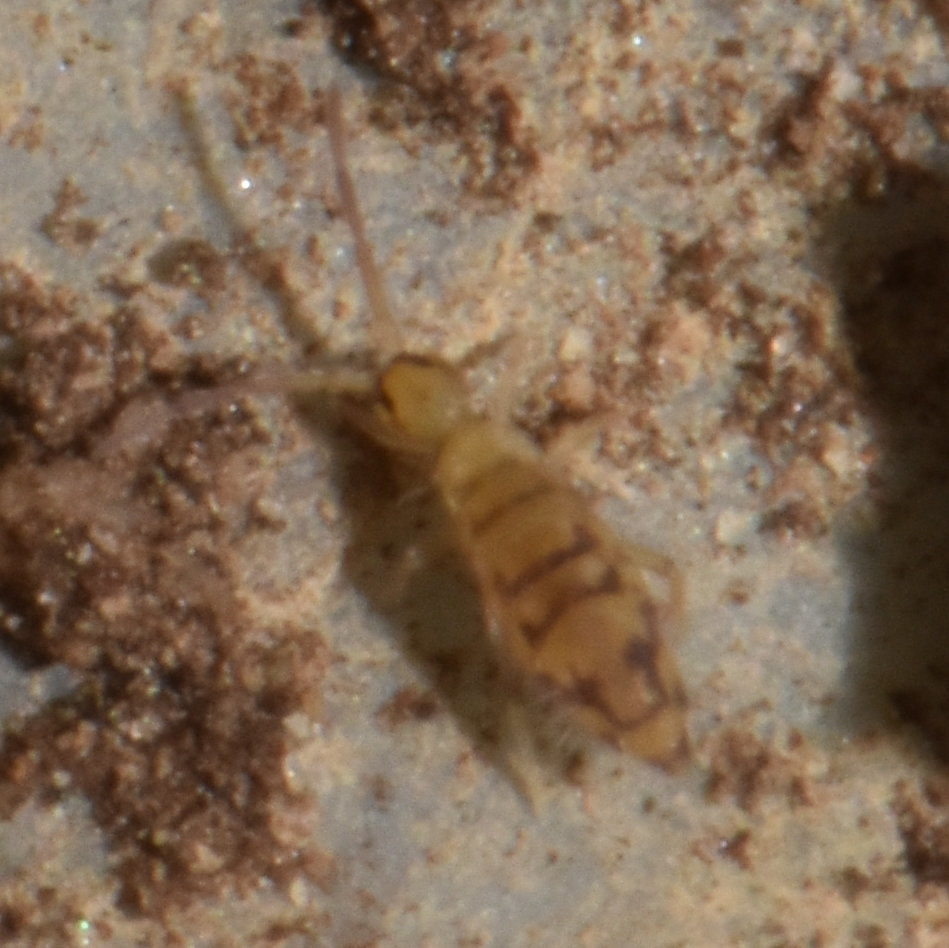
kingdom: Animalia
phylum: Arthropoda
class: Collembola
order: Entomobryomorpha
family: Entomobryidae
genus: Entomobrya
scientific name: Entomobrya nivalis
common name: Cosmopolitan springtail
